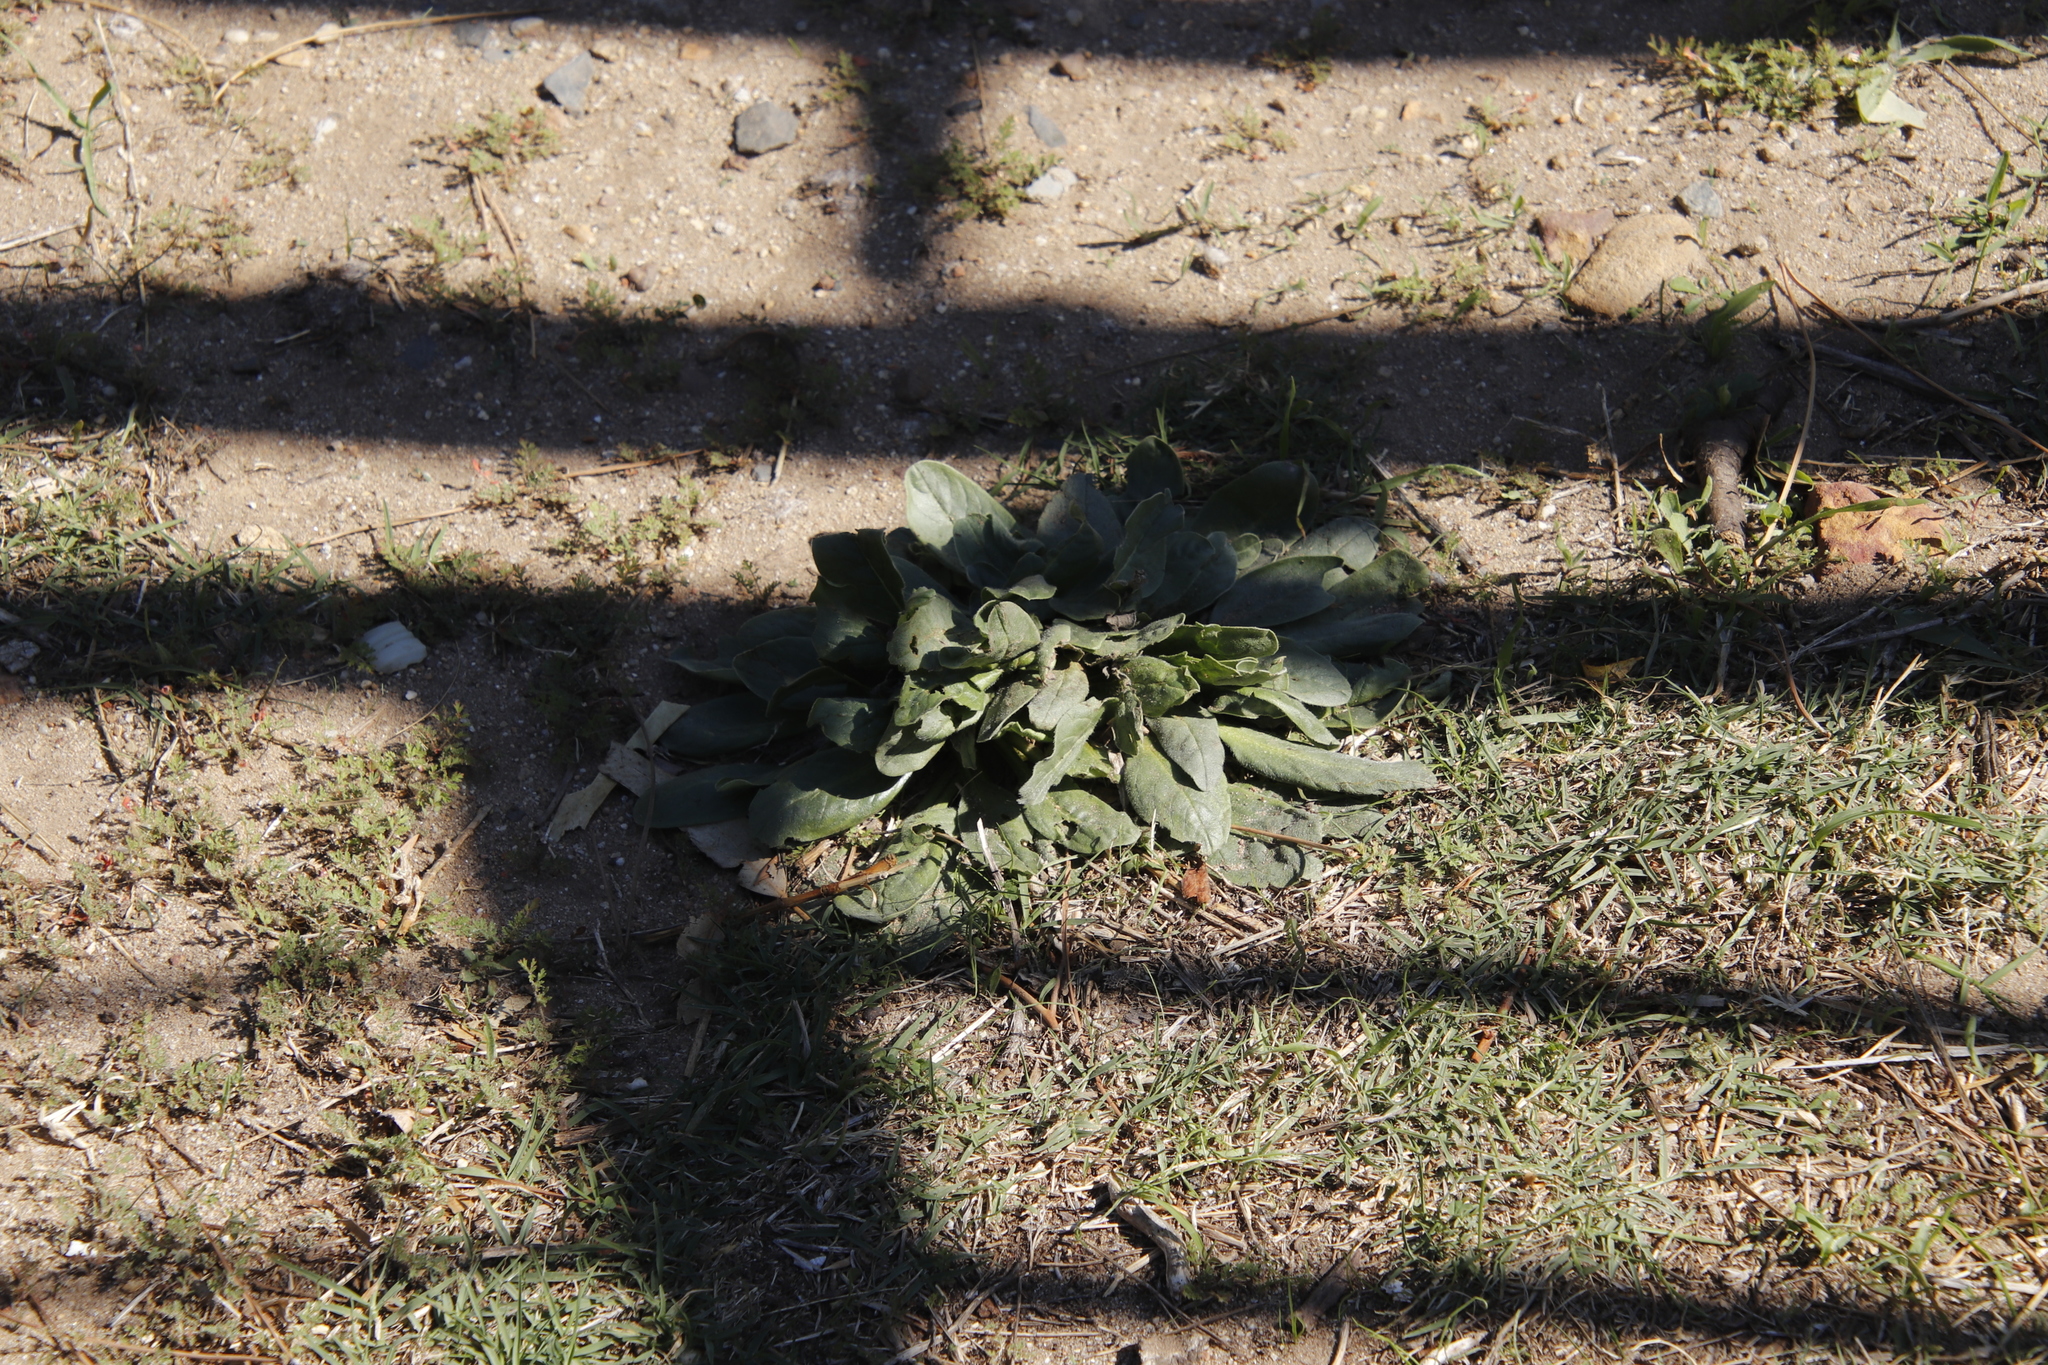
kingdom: Plantae
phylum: Tracheophyta
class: Magnoliopsida
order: Boraginales
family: Boraginaceae
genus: Echium
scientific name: Echium plantagineum
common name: Purple viper's-bugloss
